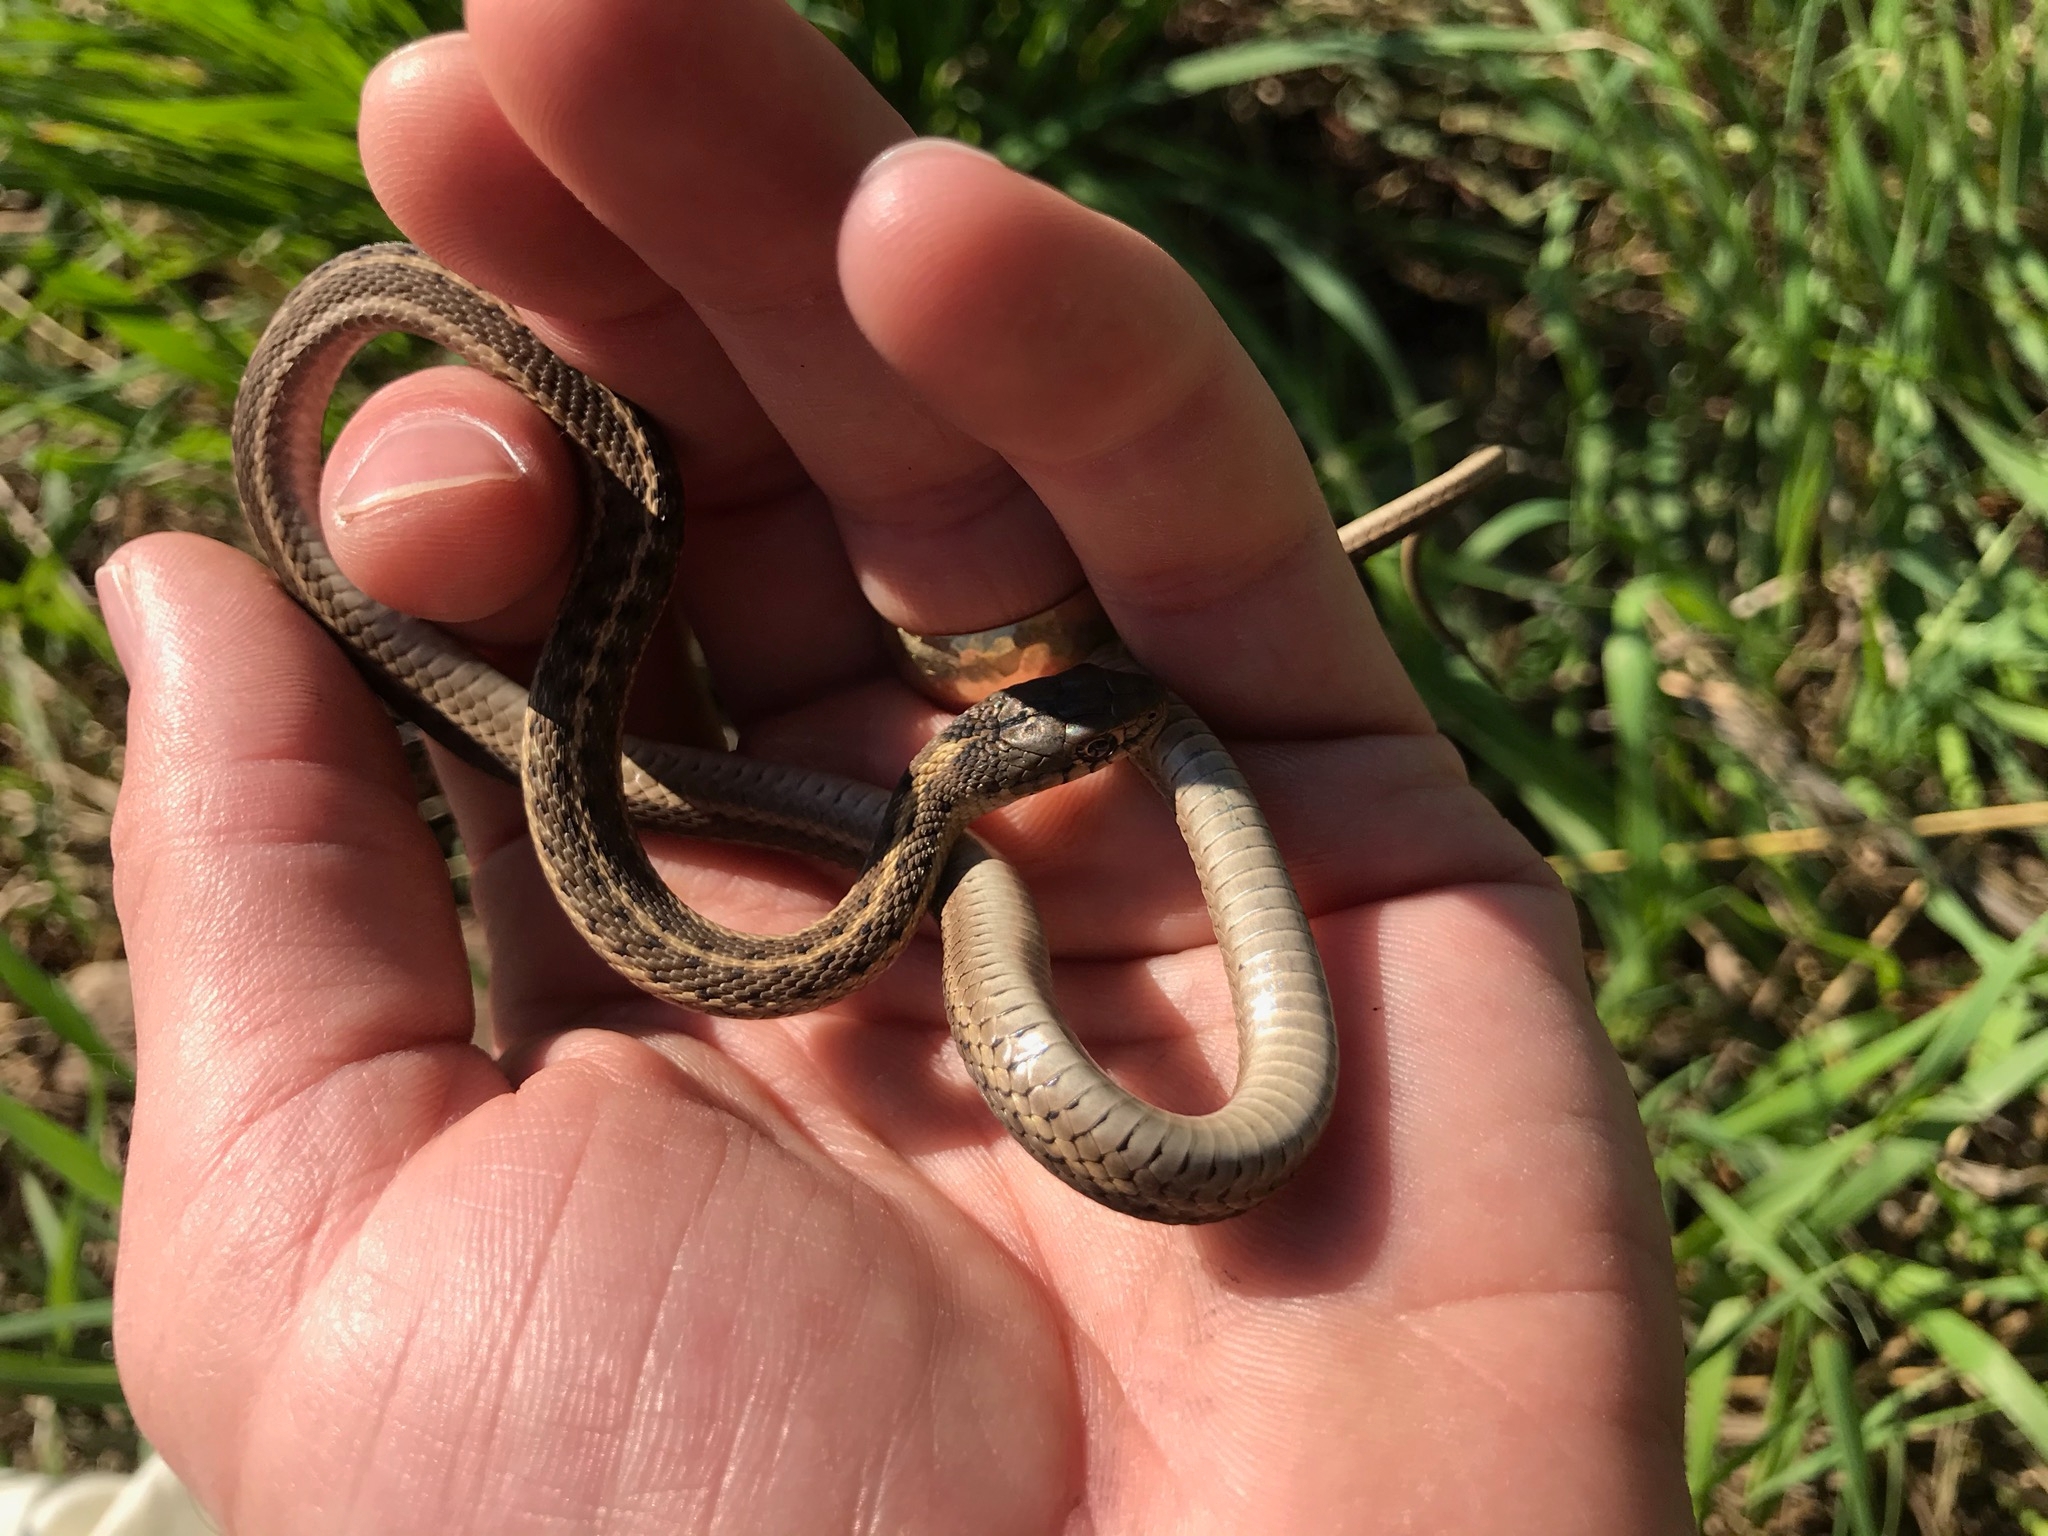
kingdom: Animalia
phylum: Chordata
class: Squamata
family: Colubridae
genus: Thamnophis
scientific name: Thamnophis elegans
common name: Western terrestrial garter snake
